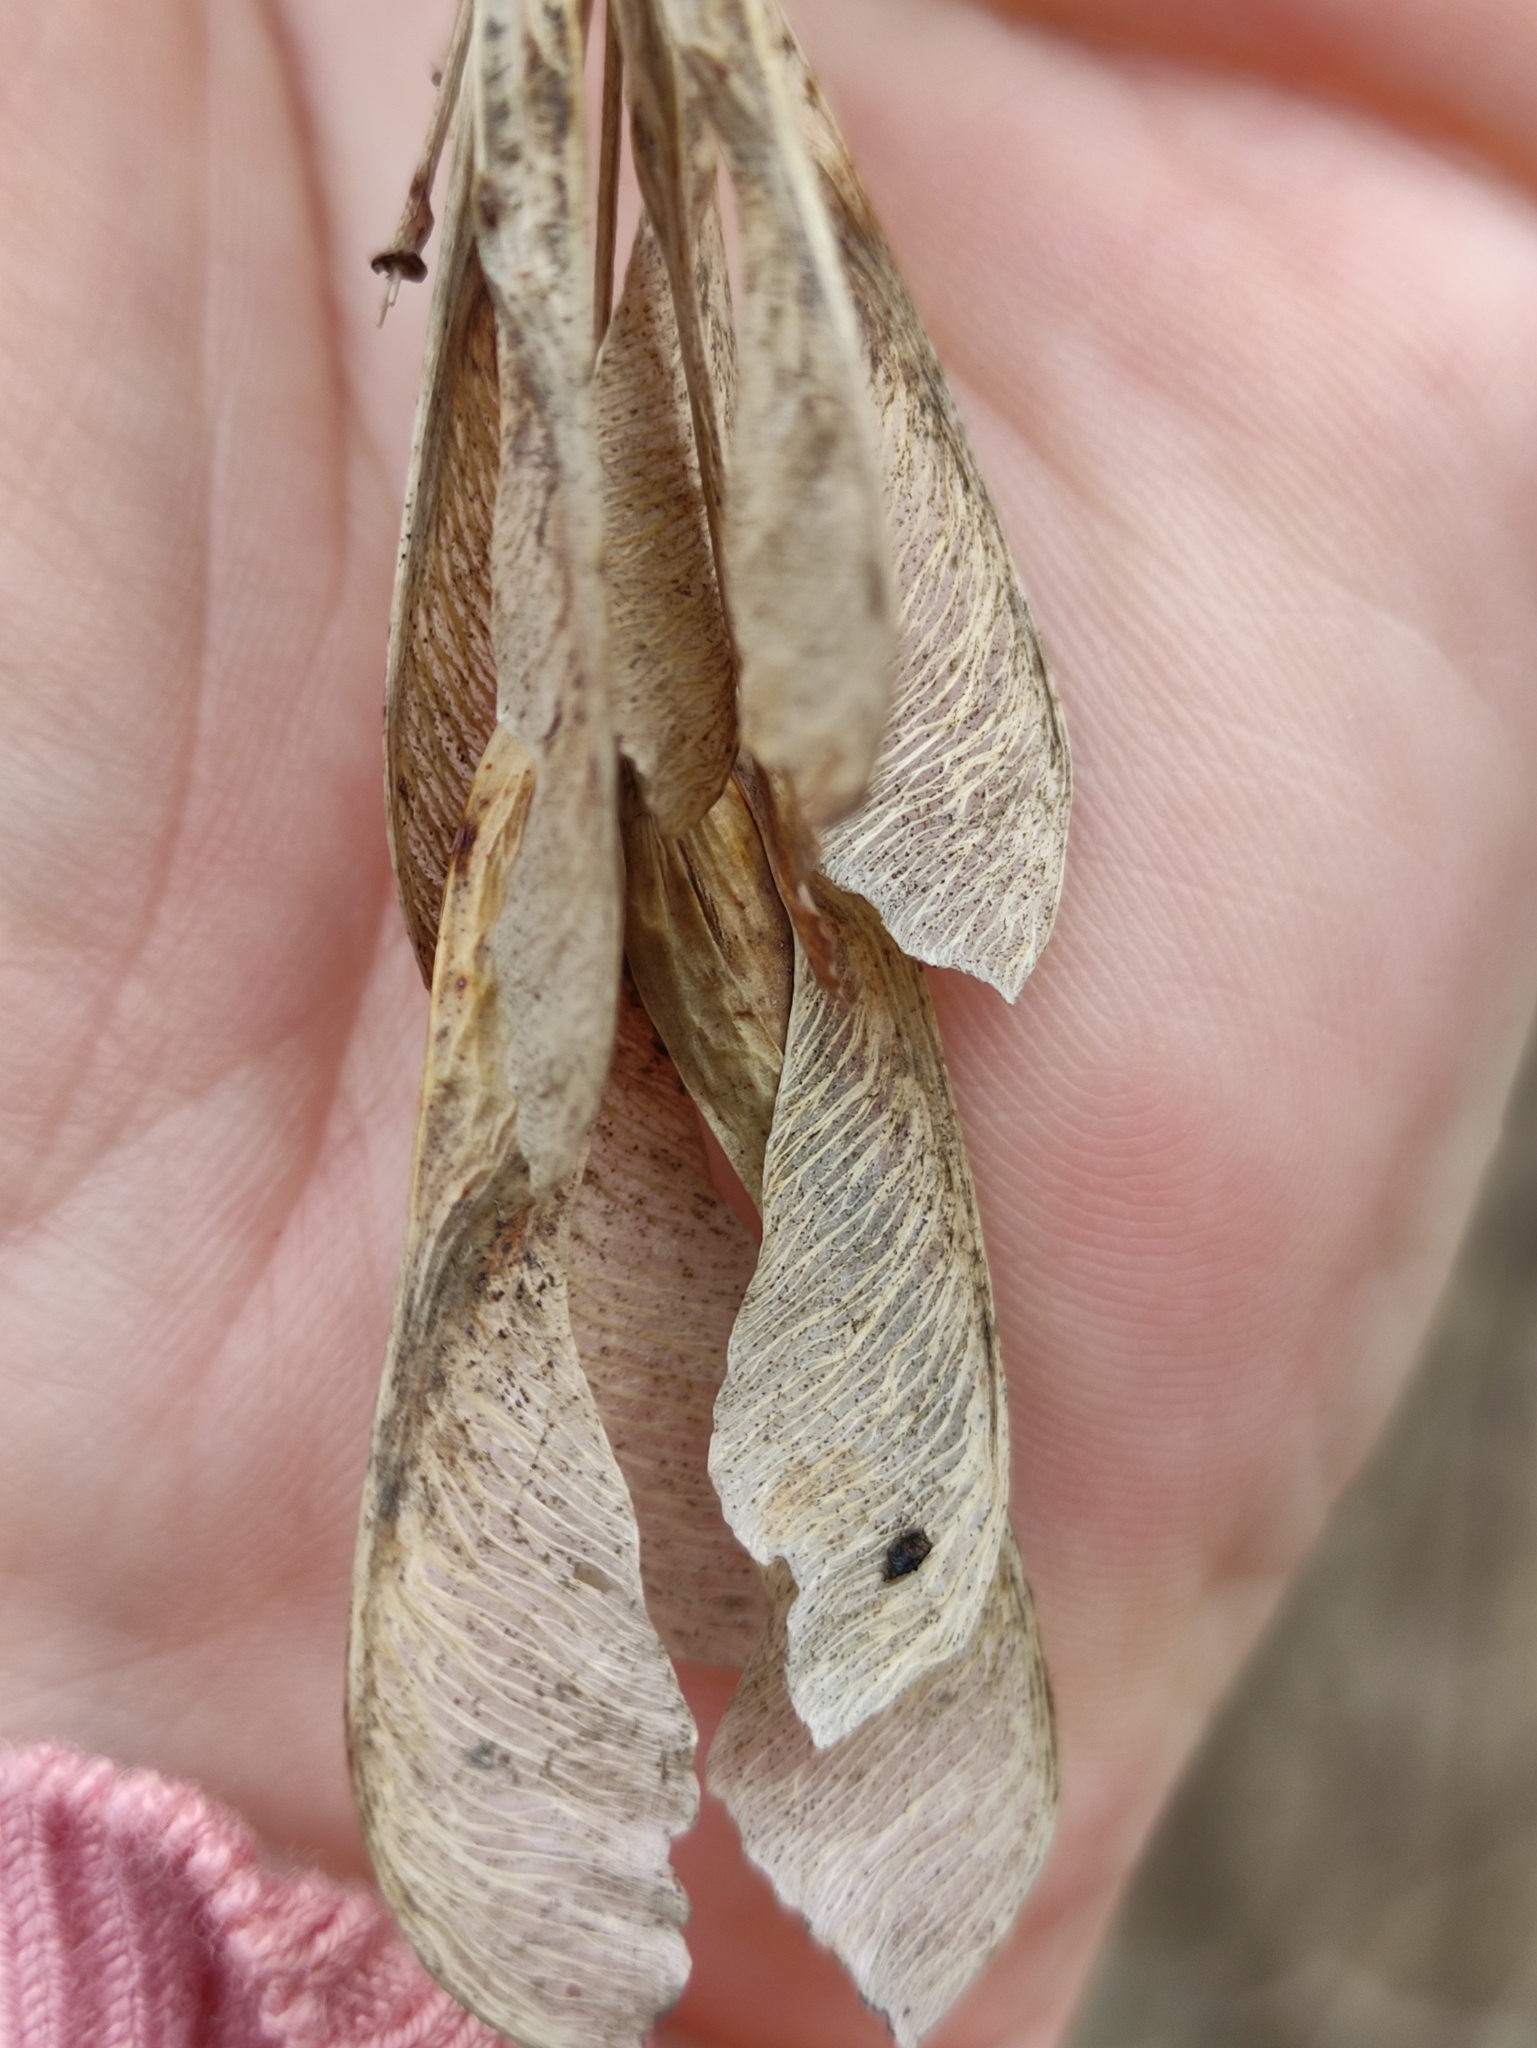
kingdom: Plantae
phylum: Tracheophyta
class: Magnoliopsida
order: Sapindales
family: Sapindaceae
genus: Acer
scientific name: Acer negundo
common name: Ashleaf maple
